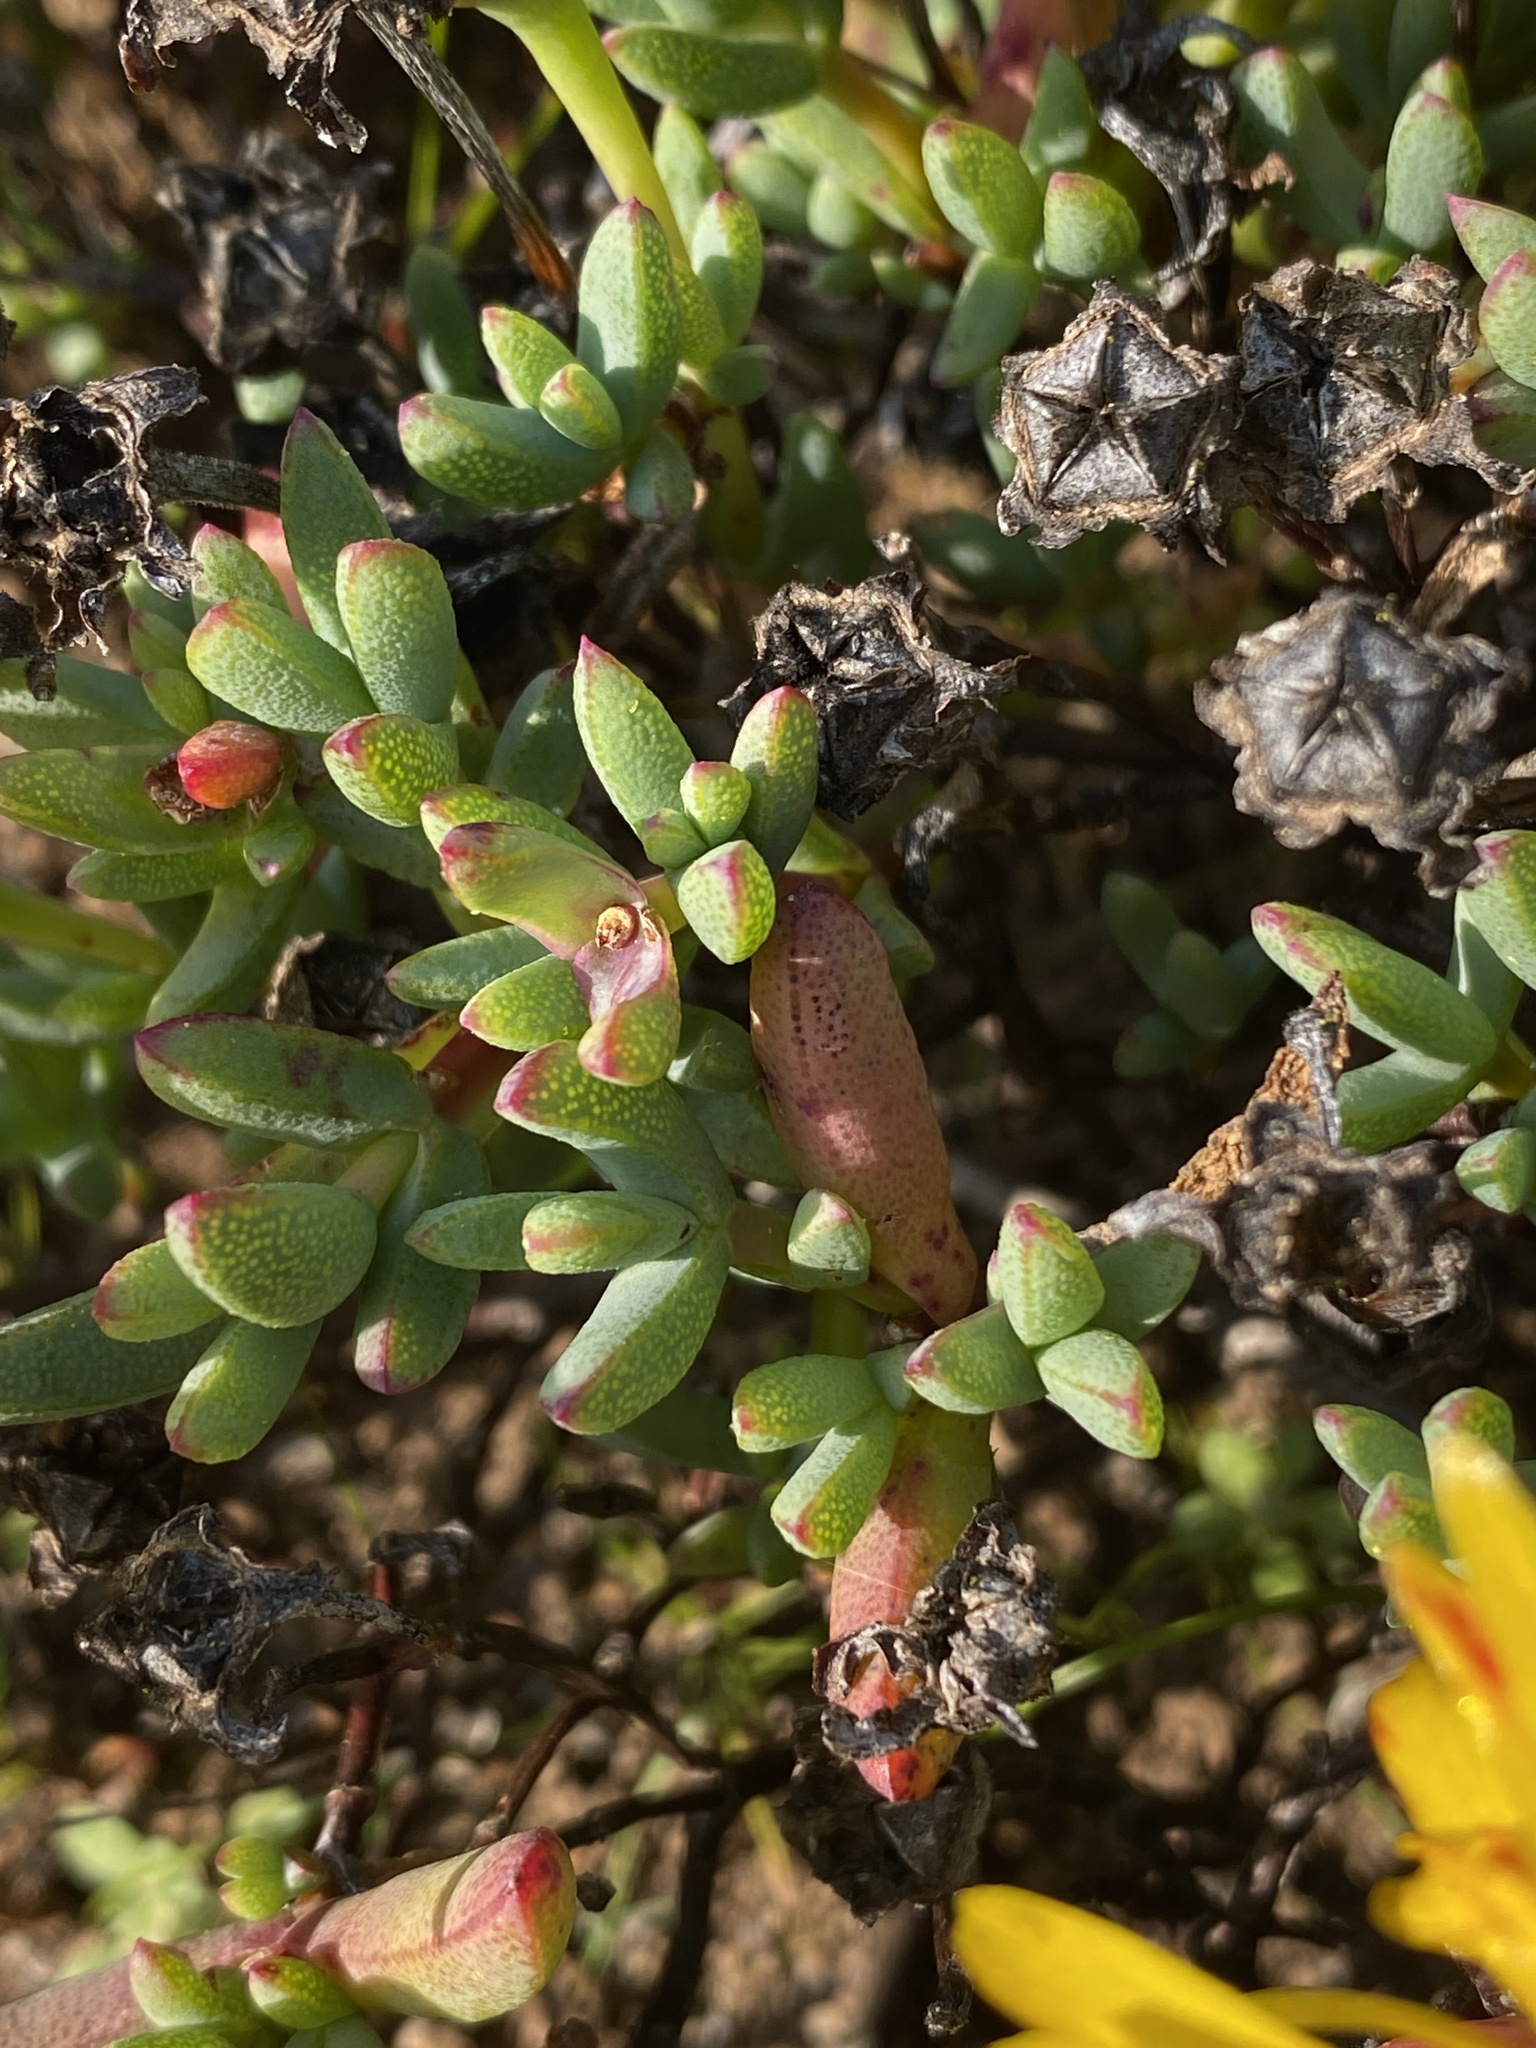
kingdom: Plantae
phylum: Tracheophyta
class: Magnoliopsida
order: Caryophyllales
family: Aizoaceae
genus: Lampranthus
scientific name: Lampranthus glaucus
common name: Noonflower
